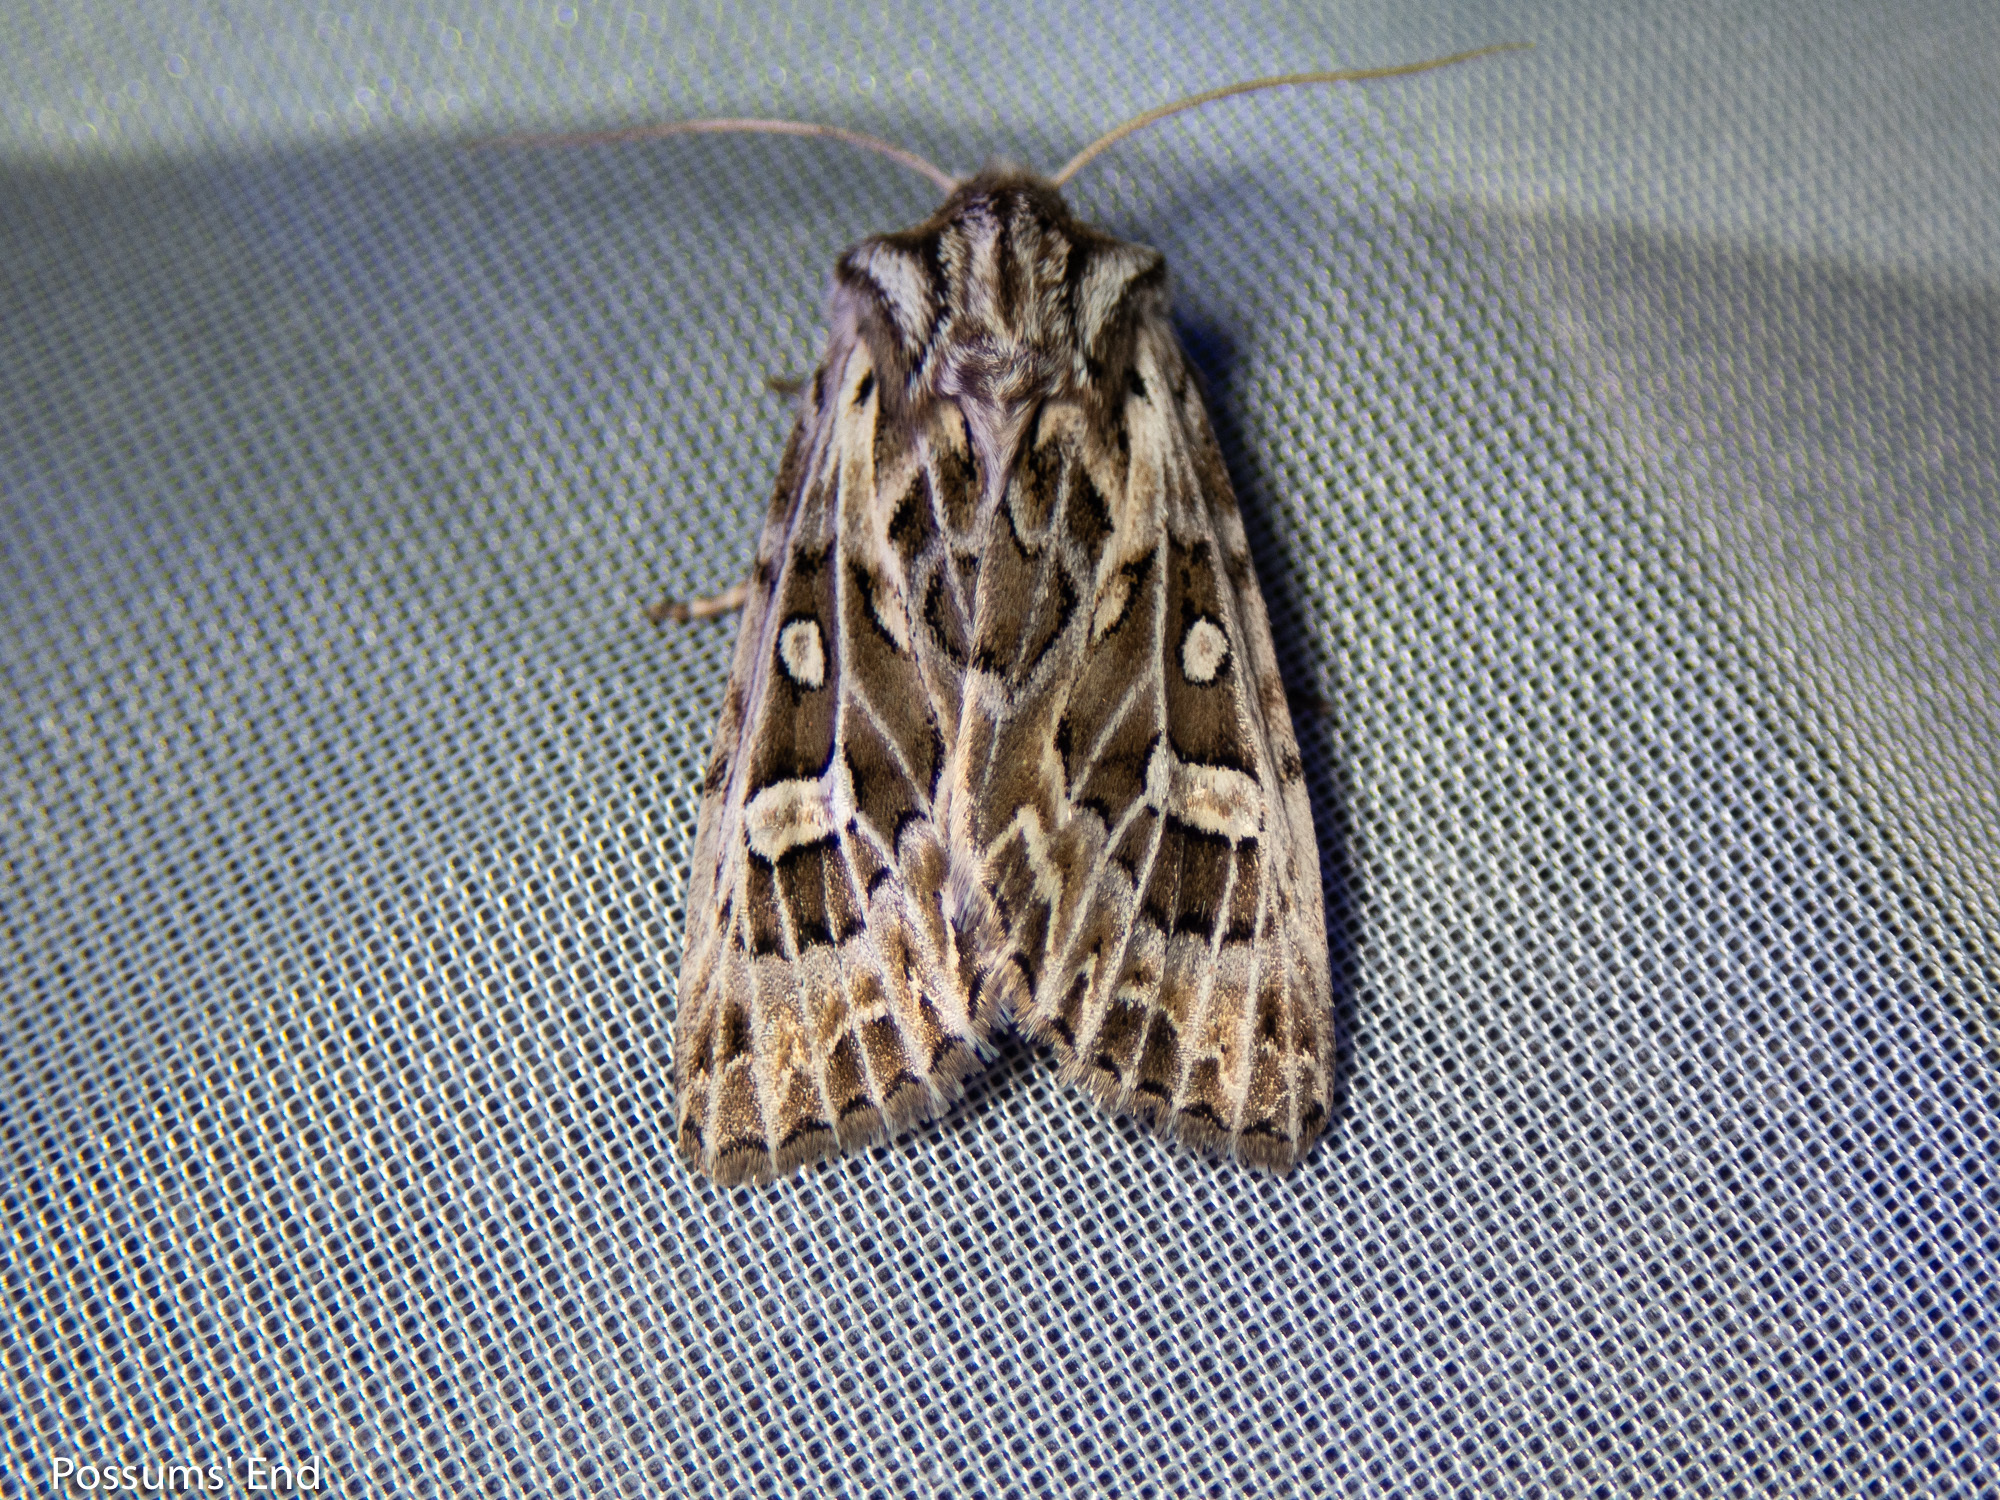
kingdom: Animalia
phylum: Arthropoda
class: Insecta
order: Lepidoptera
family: Noctuidae
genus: Ichneutica
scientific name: Ichneutica
